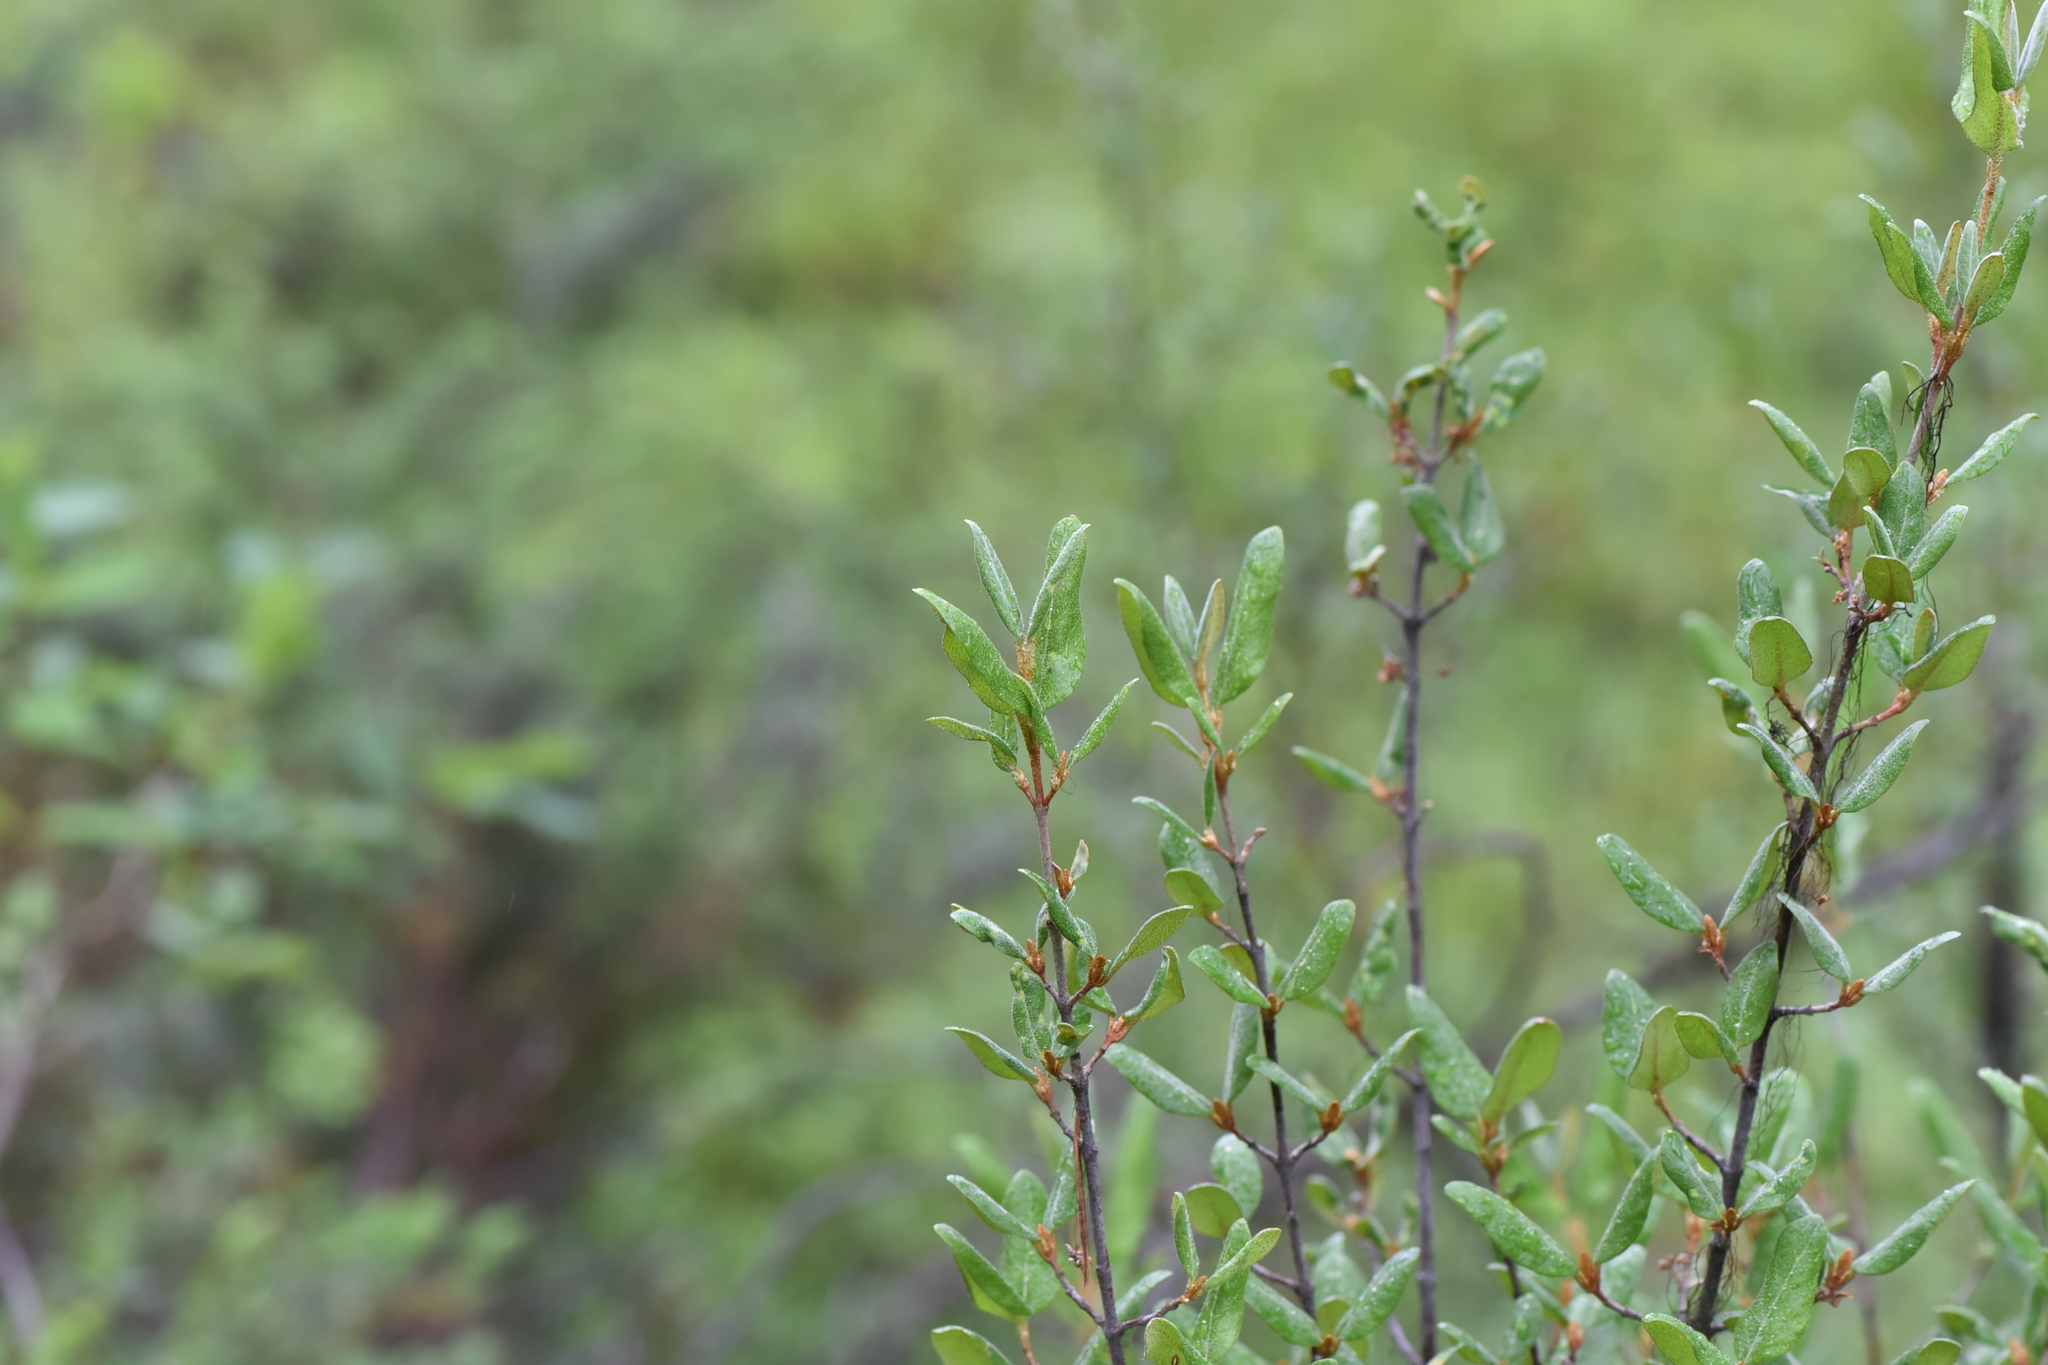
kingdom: Plantae
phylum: Tracheophyta
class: Magnoliopsida
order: Rosales
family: Elaeagnaceae
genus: Shepherdia
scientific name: Shepherdia canadensis
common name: Soapberry
